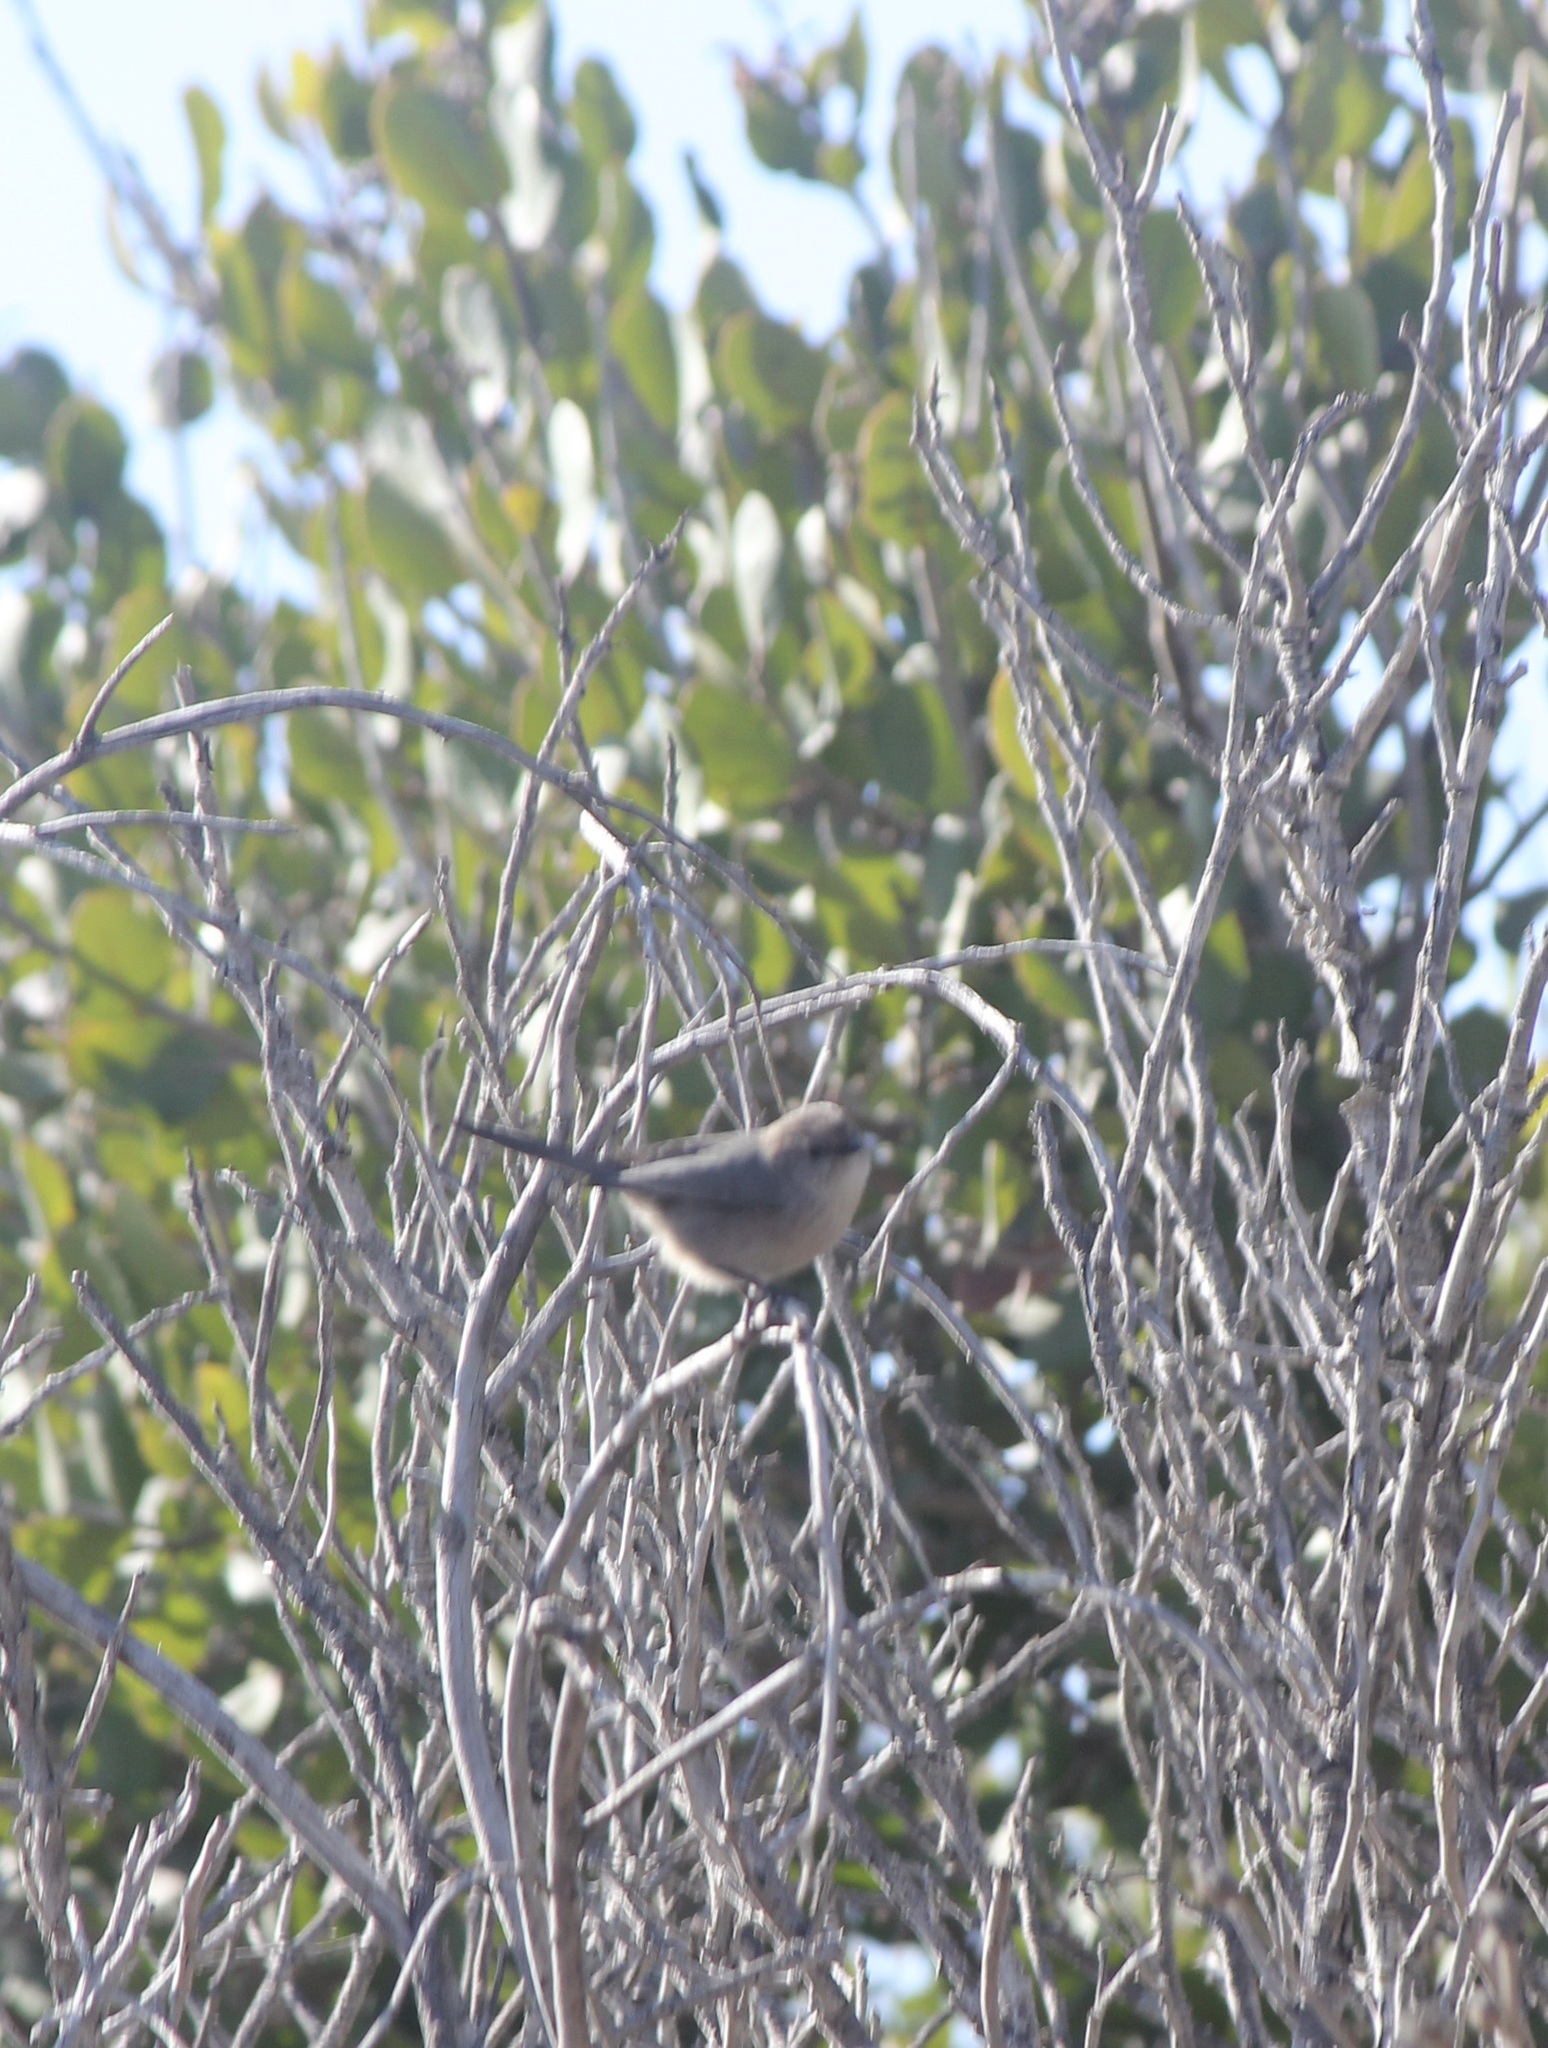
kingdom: Animalia
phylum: Chordata
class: Aves
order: Passeriformes
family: Aegithalidae
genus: Psaltriparus
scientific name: Psaltriparus minimus
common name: American bushtit
